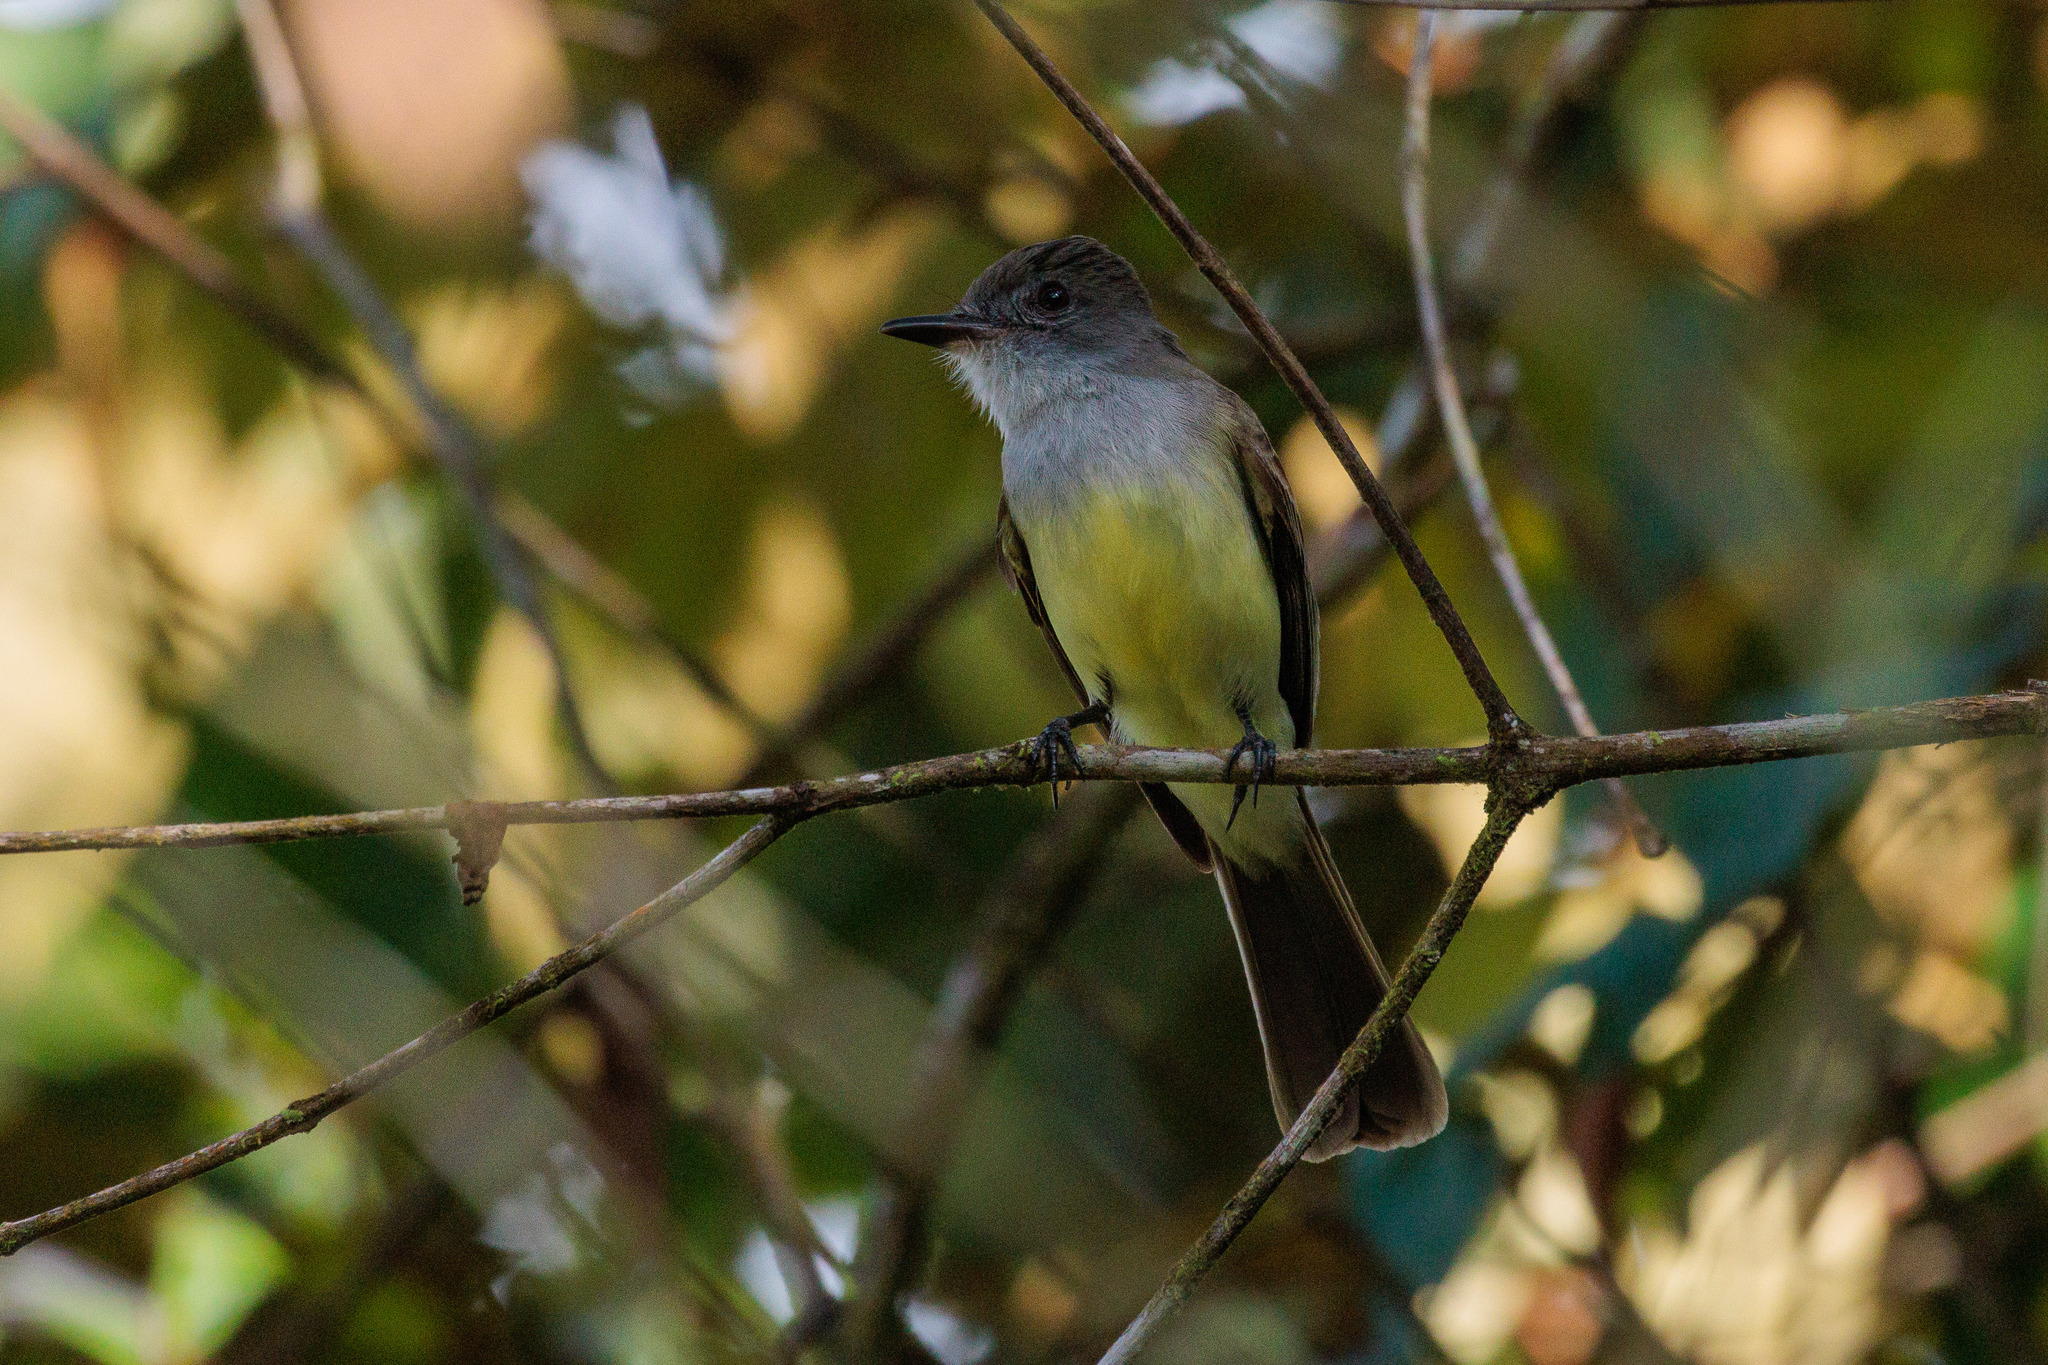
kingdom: Animalia
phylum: Chordata
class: Aves
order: Passeriformes
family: Tyrannidae
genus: Myiarchus
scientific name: Myiarchus ferox
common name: Short-crested flycatcher
